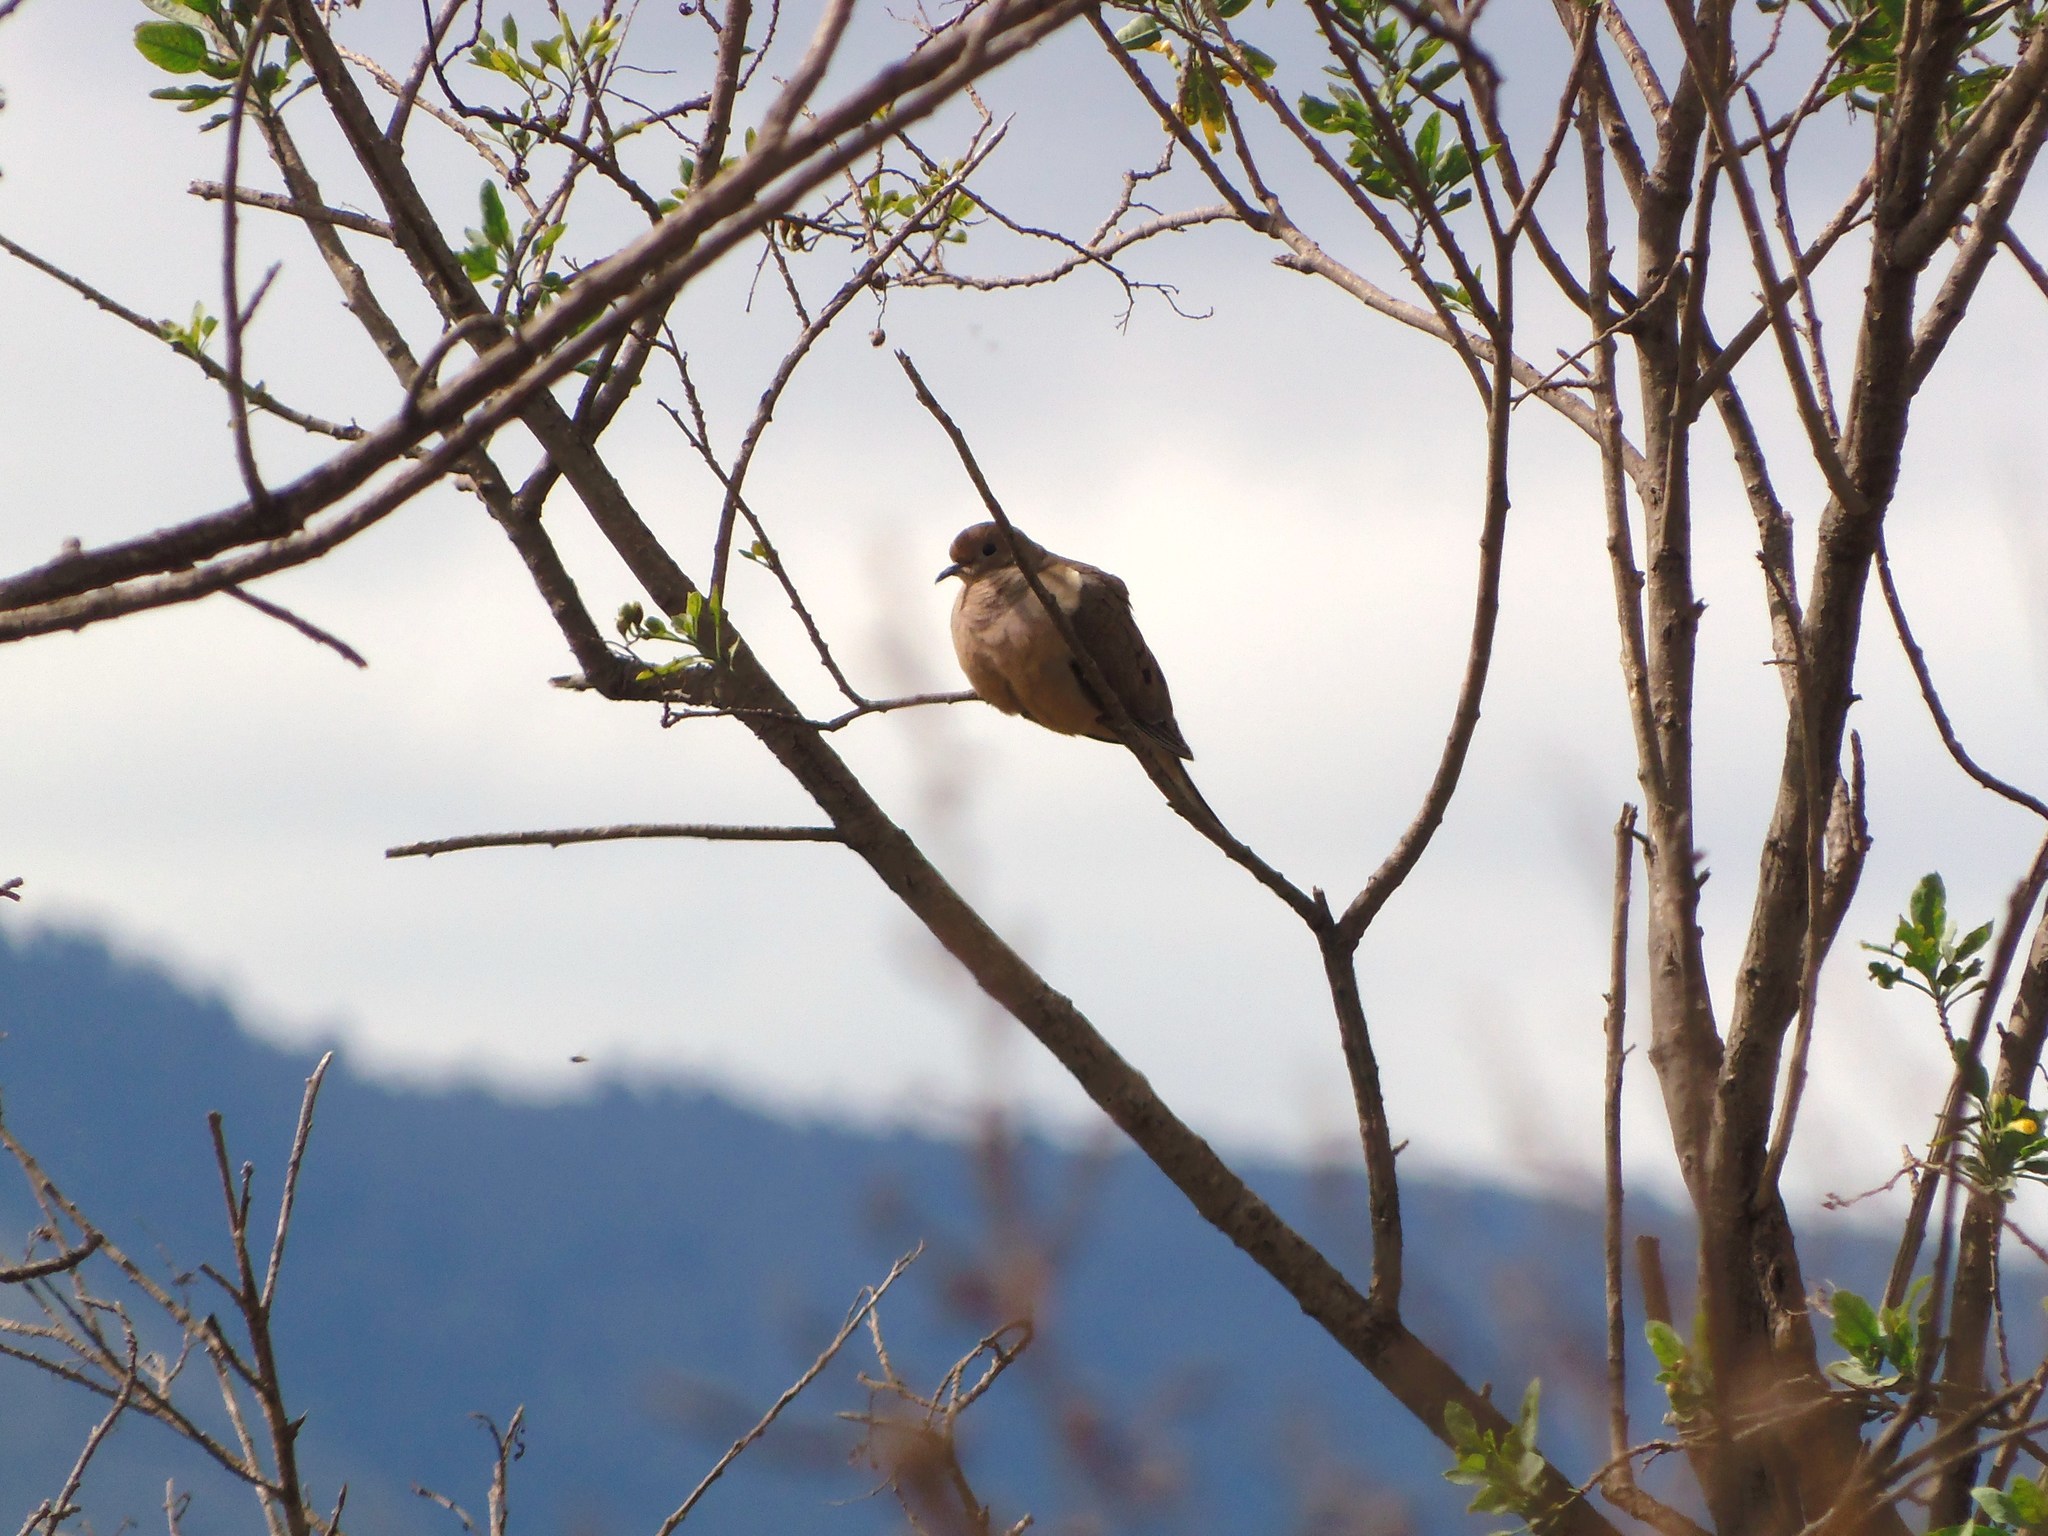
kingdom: Animalia
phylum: Chordata
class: Aves
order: Columbiformes
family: Columbidae
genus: Zenaida
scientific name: Zenaida macroura
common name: Mourning dove
